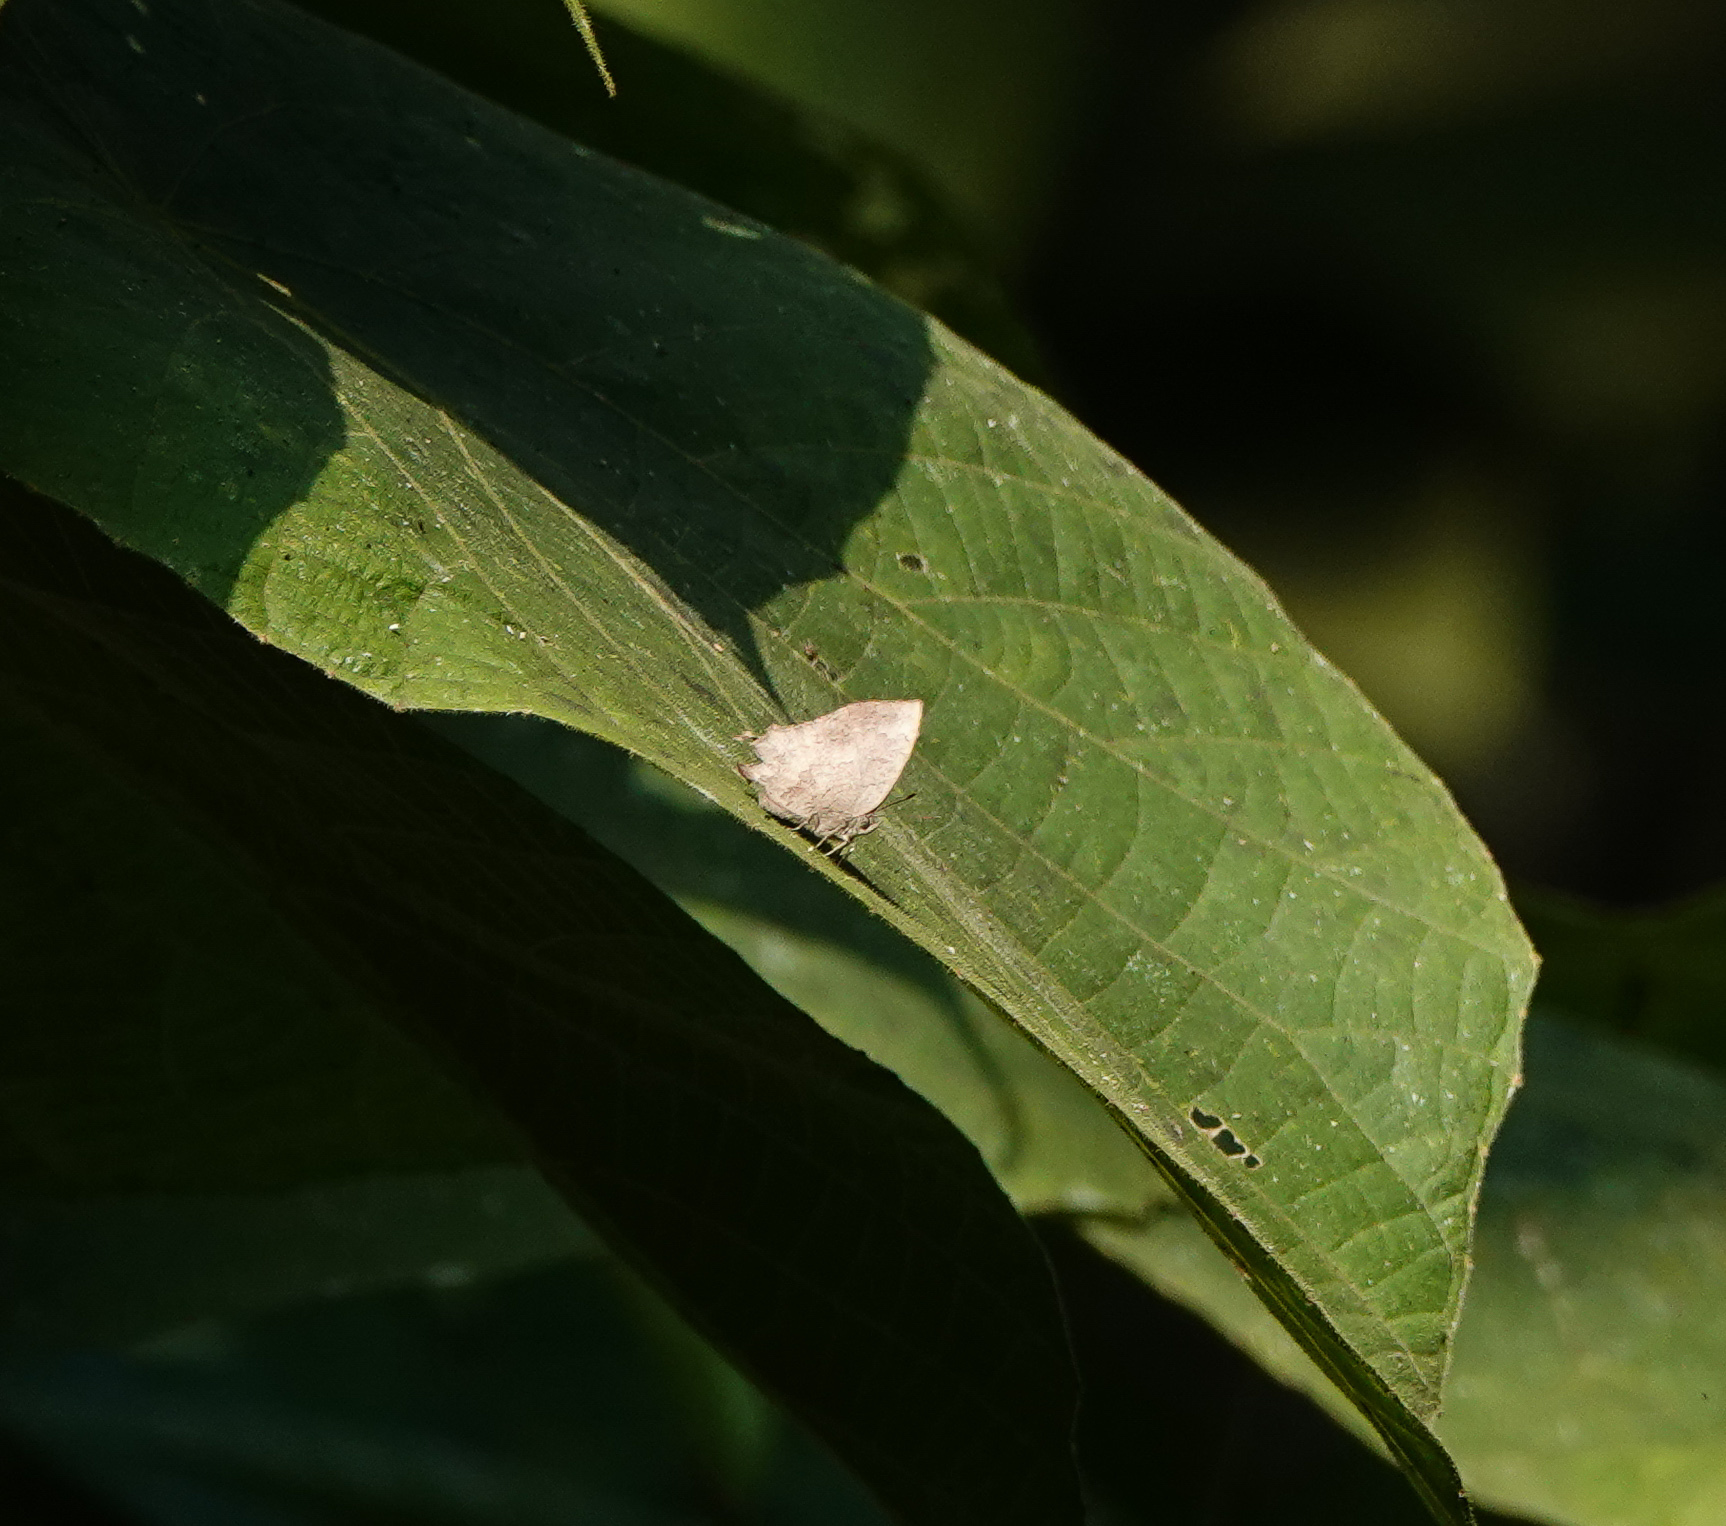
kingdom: Animalia
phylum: Arthropoda
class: Insecta
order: Lepidoptera
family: Lycaenidae
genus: Surendra
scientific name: Surendra quercetorum
